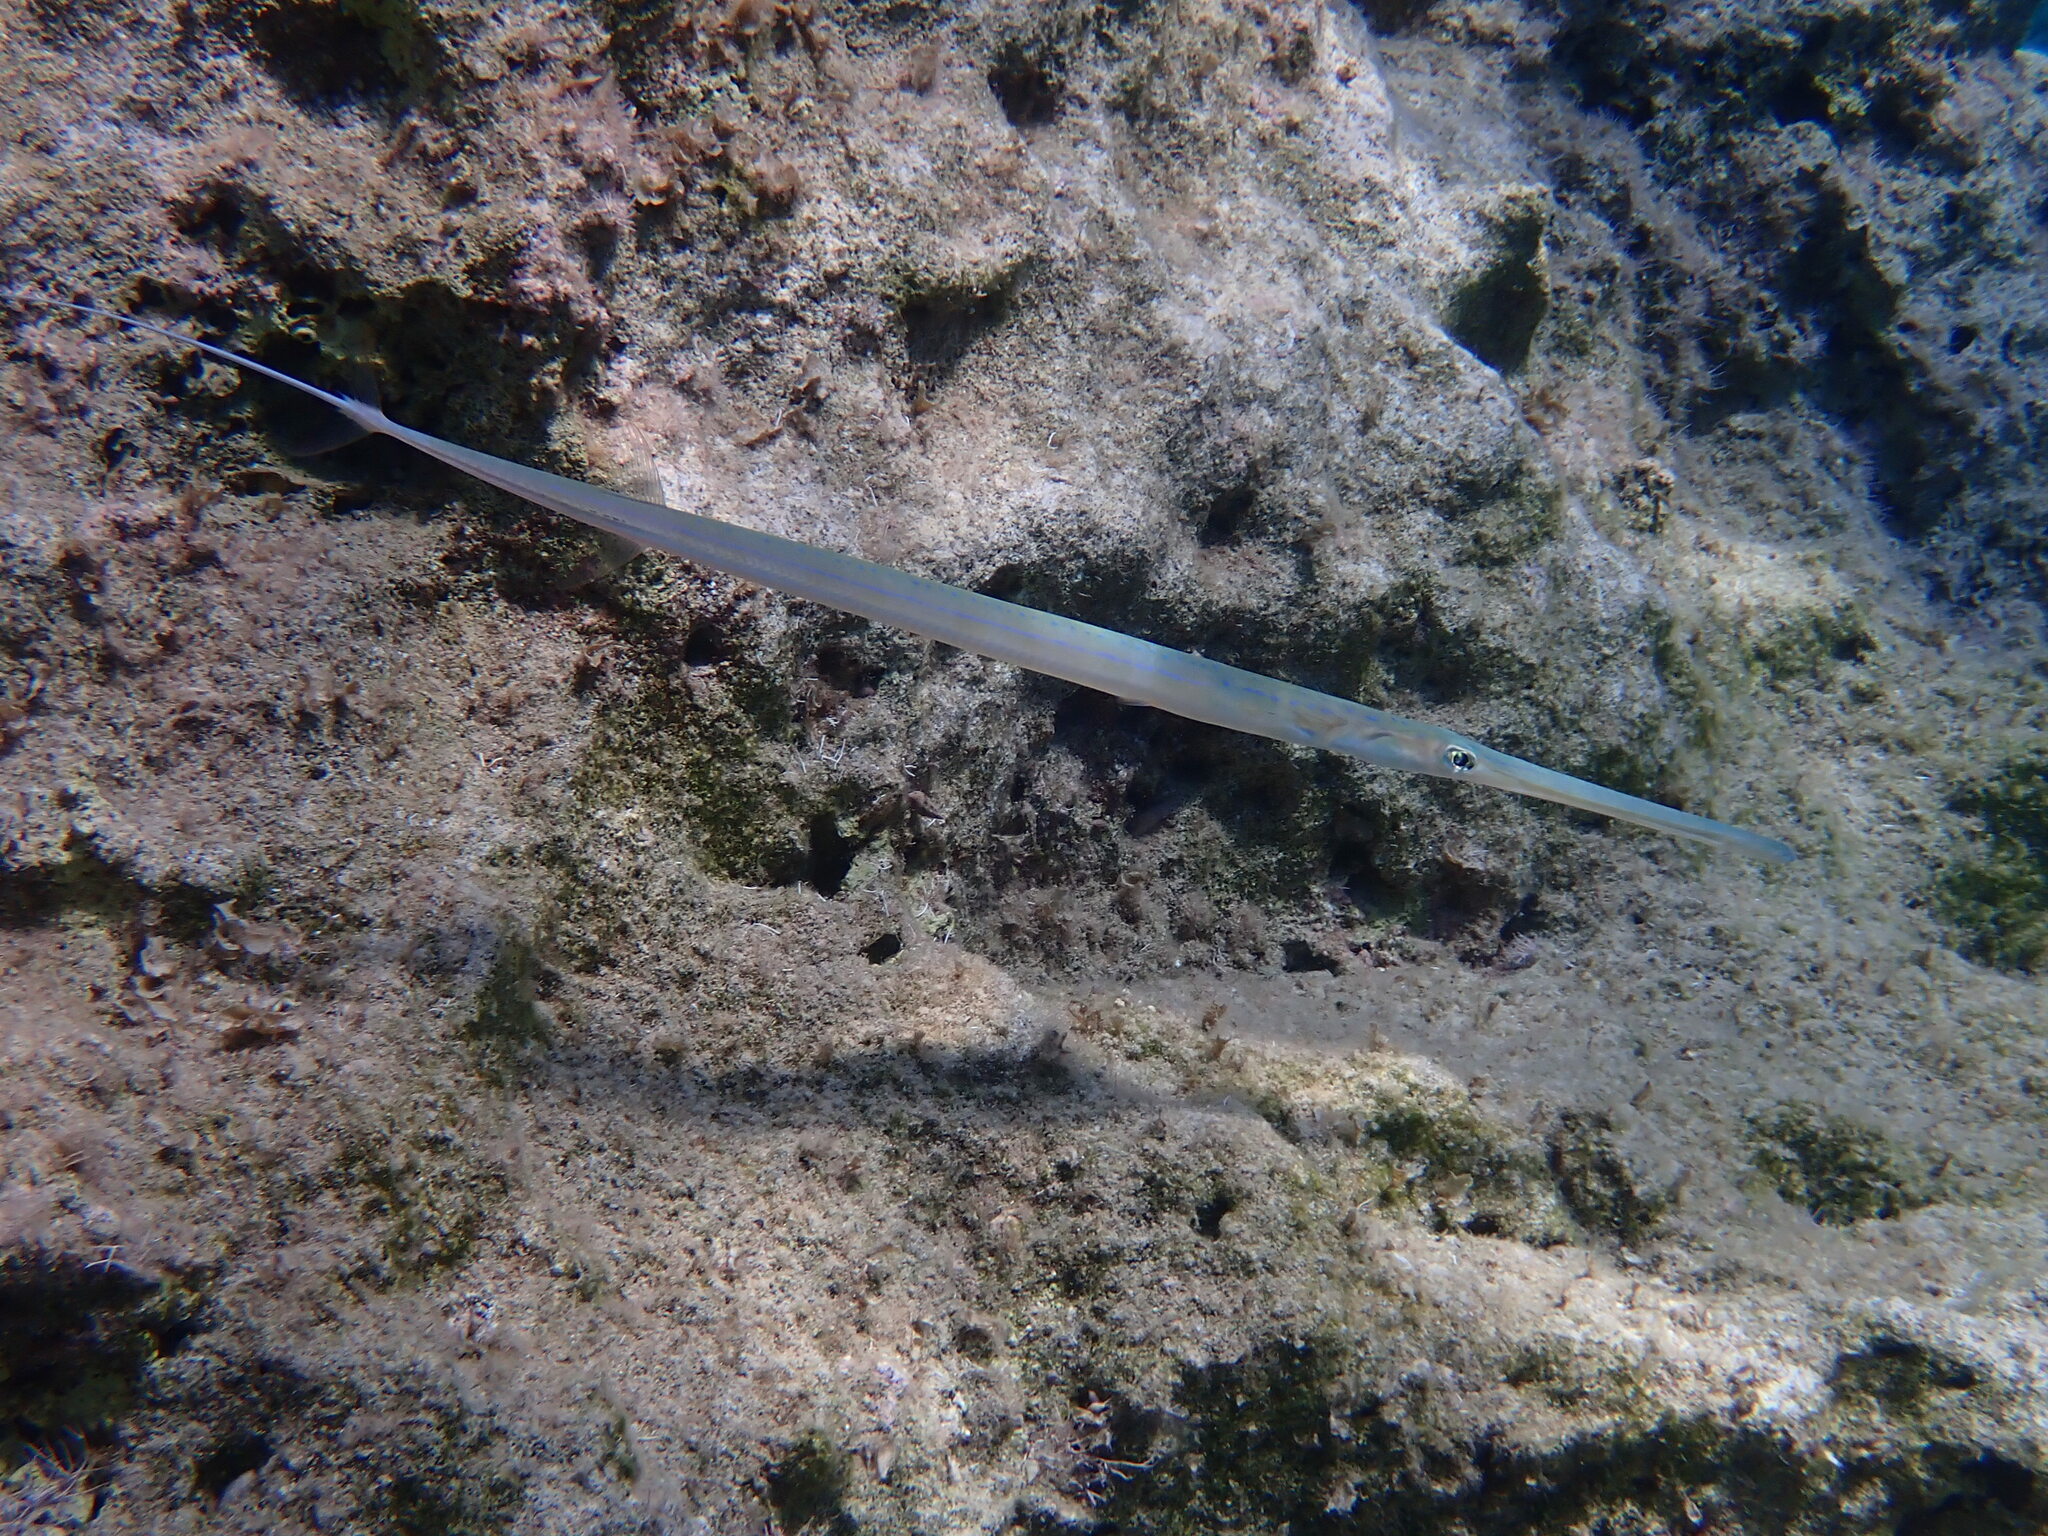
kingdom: Animalia
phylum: Chordata
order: Syngnathiformes
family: Fistulariidae
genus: Fistularia
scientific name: Fistularia commersonii
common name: Bluespotted cornetfish
